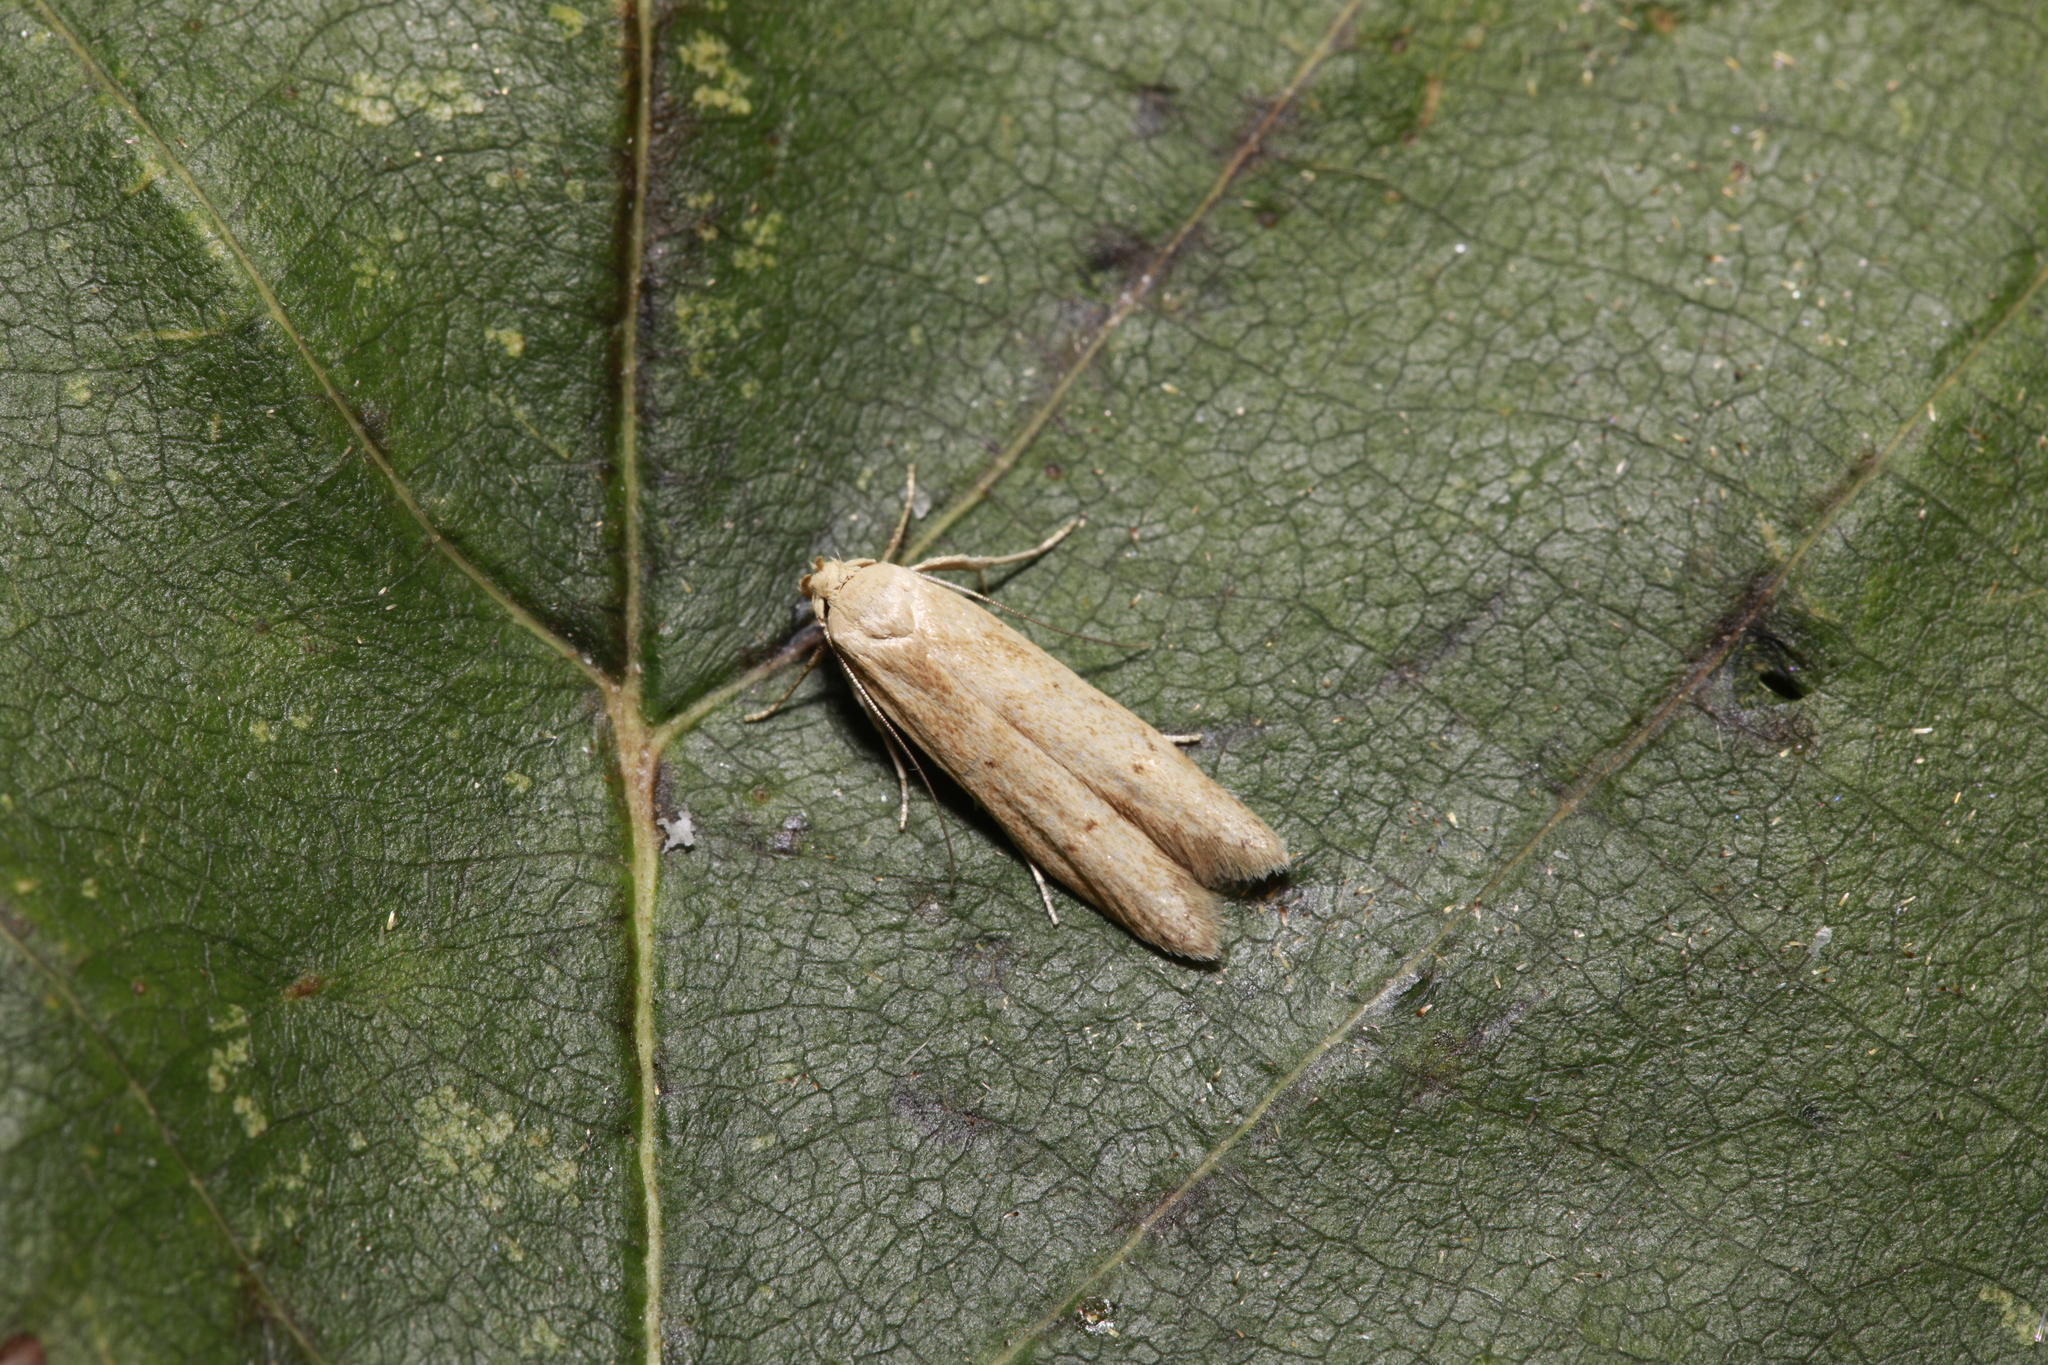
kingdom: Animalia
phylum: Arthropoda
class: Insecta
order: Lepidoptera
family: Blastobasidae
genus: Blastobasis
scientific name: Blastobasis lacticolella
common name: London dowd
